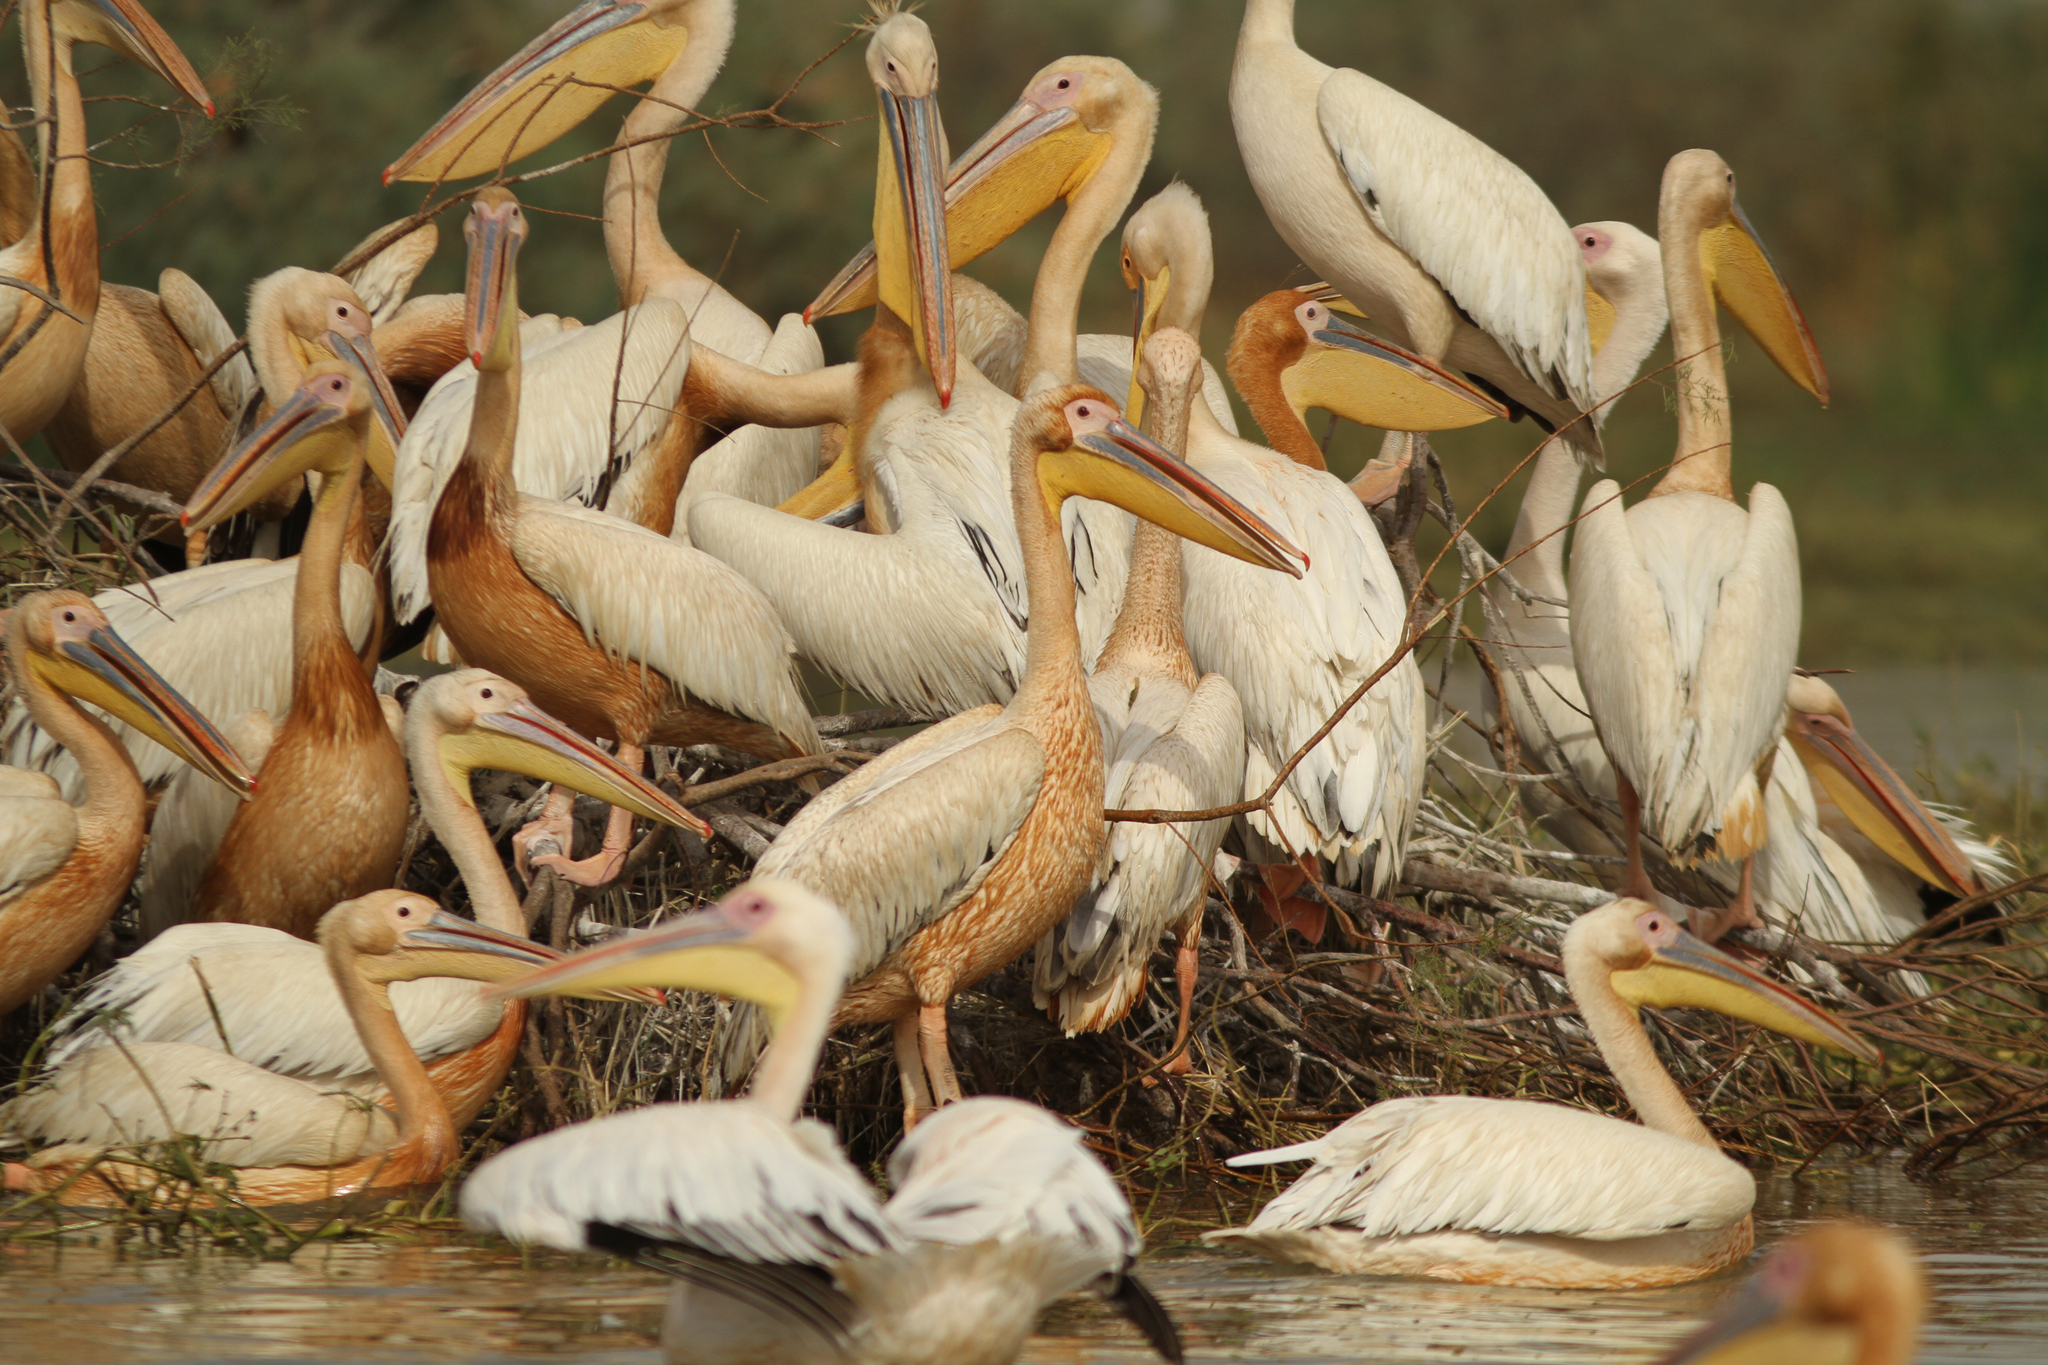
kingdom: Animalia
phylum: Chordata
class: Aves
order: Pelecaniformes
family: Pelecanidae
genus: Pelecanus
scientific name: Pelecanus onocrotalus
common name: Great white pelican
